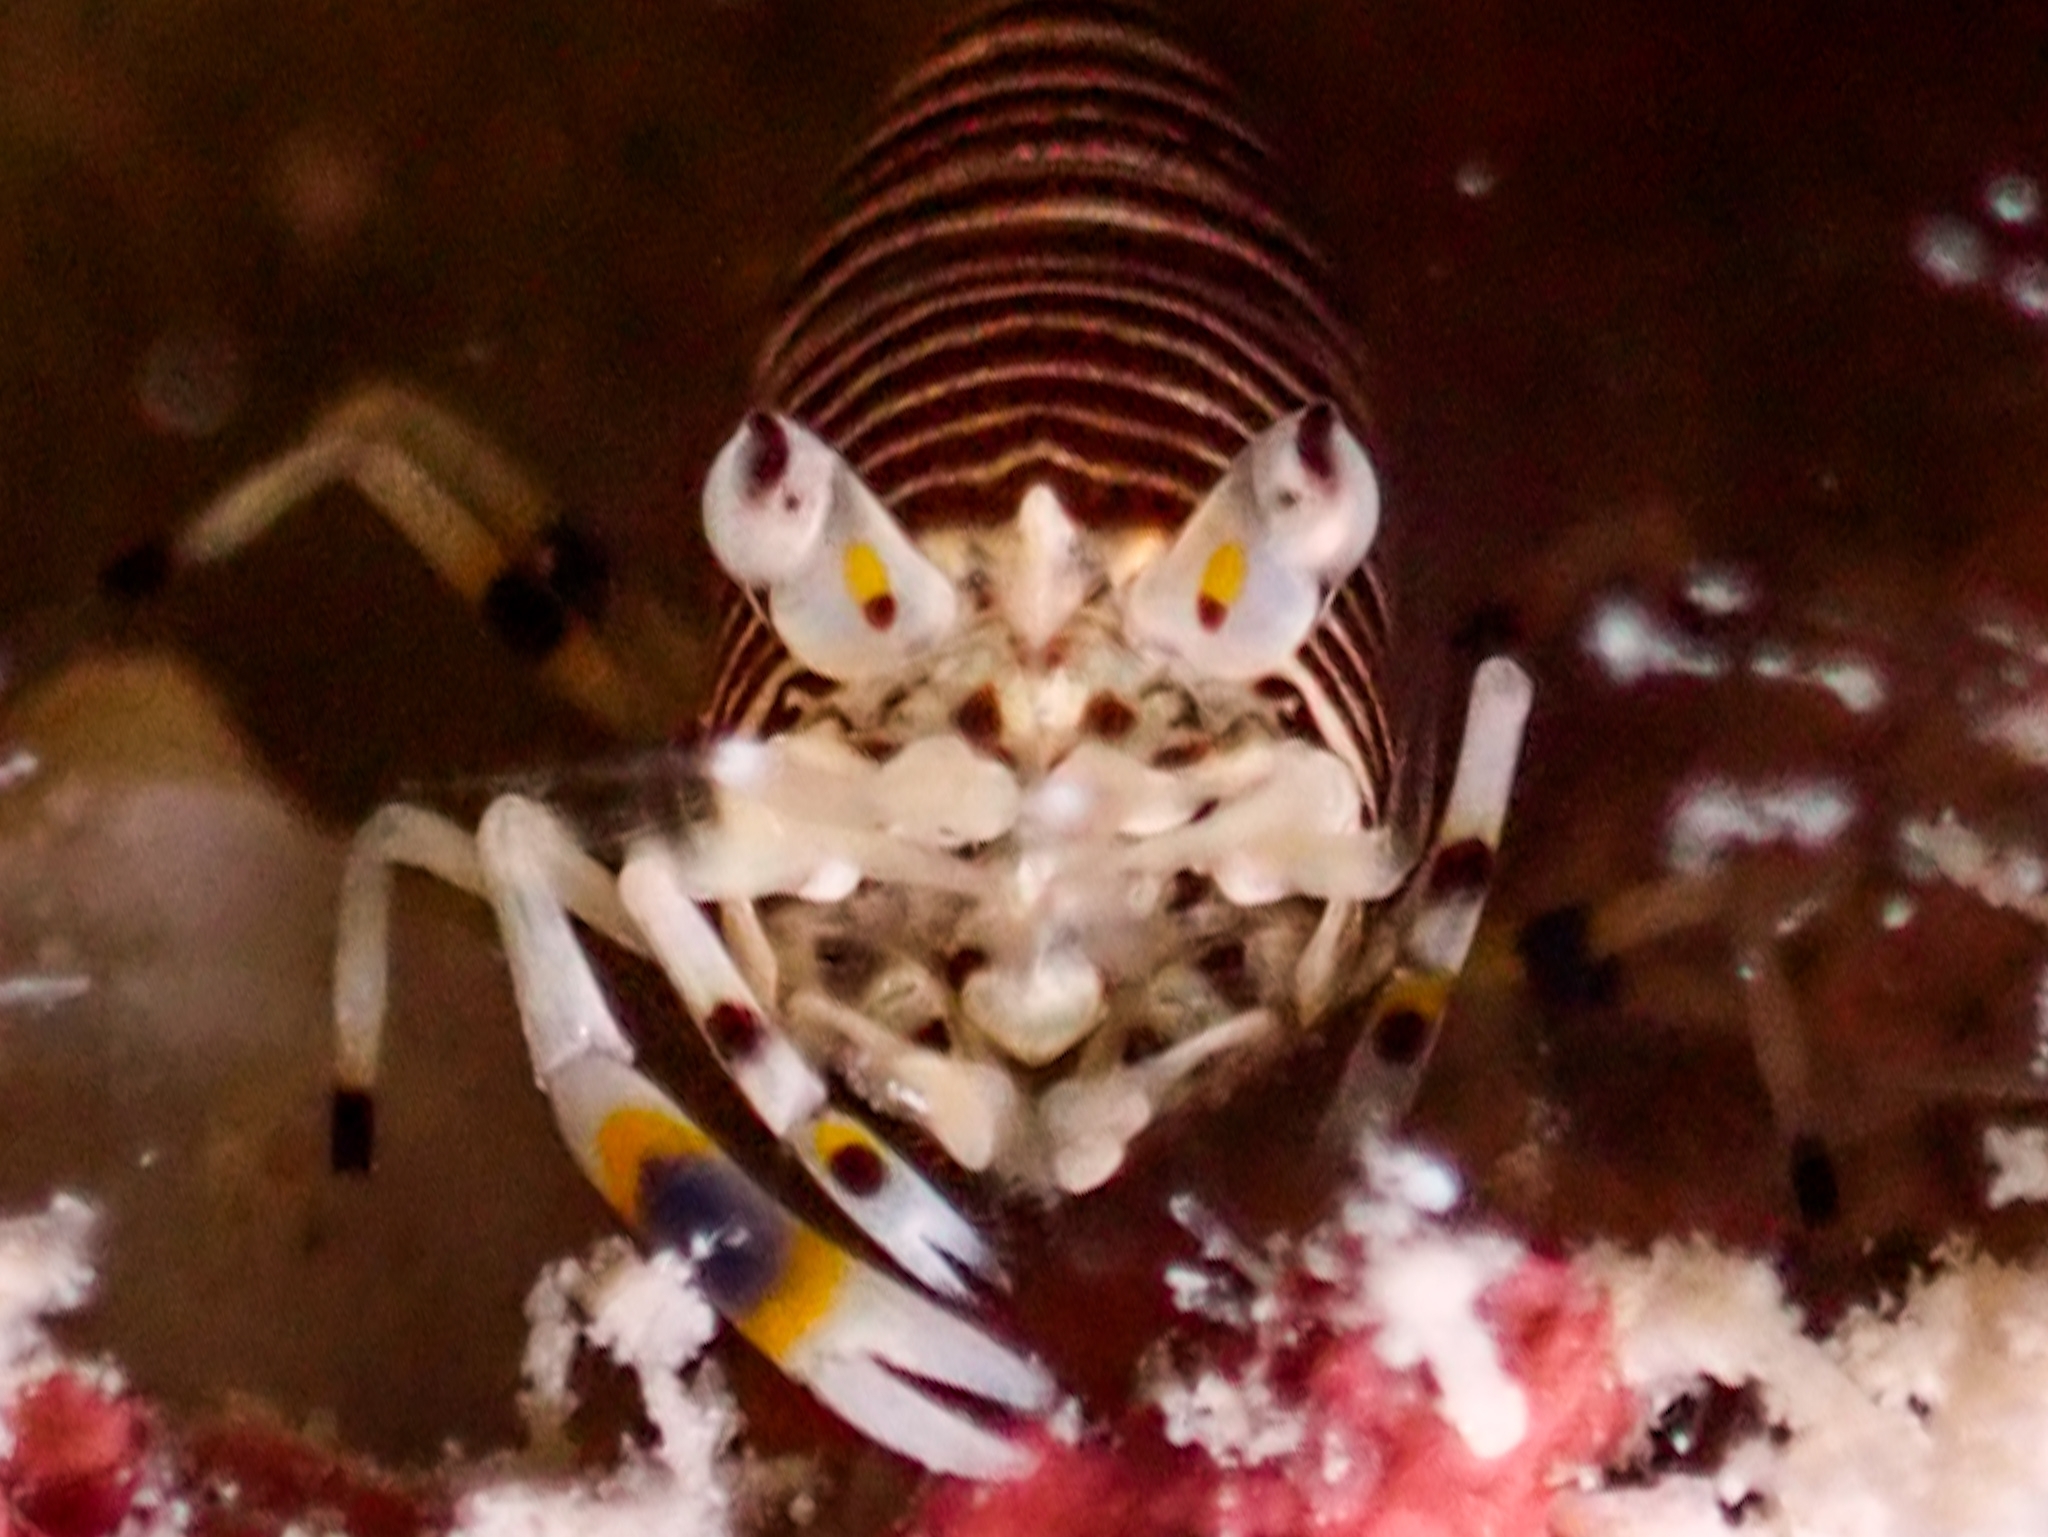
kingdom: Animalia
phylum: Arthropoda
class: Malacostraca
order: Decapoda
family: Palaemonidae
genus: Gnathophyllum
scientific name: Gnathophyllum americanum
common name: Bumblebee shrimp
